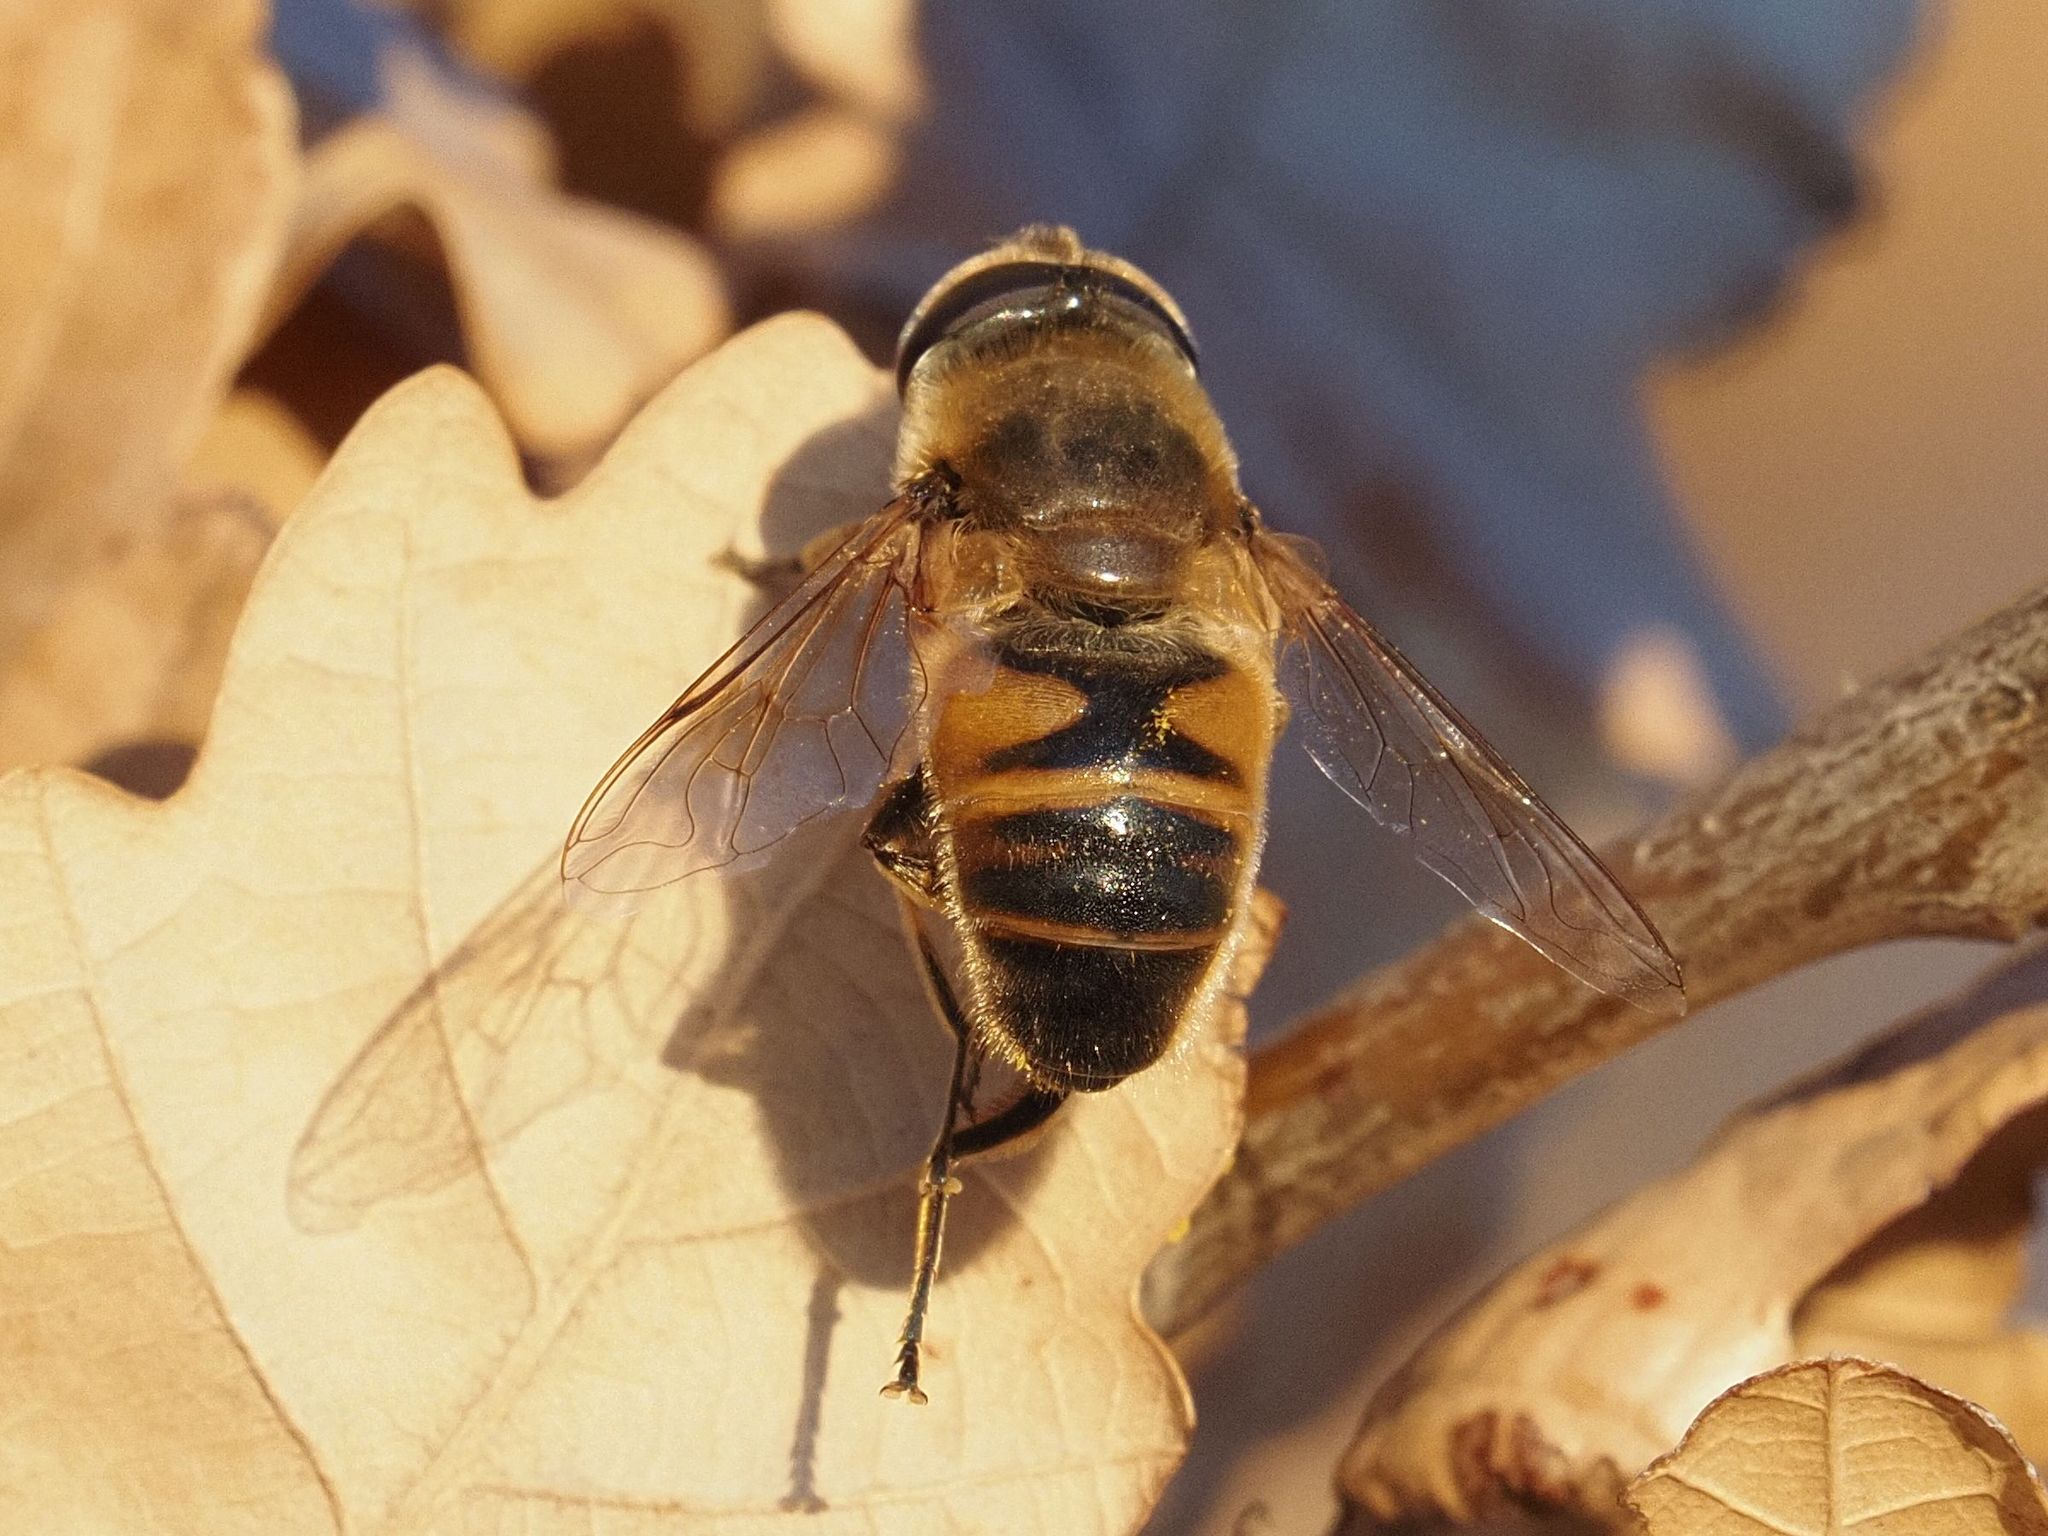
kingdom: Animalia
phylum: Arthropoda
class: Insecta
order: Diptera
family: Syrphidae
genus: Eristalis
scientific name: Eristalis tenax
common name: Drone fly
